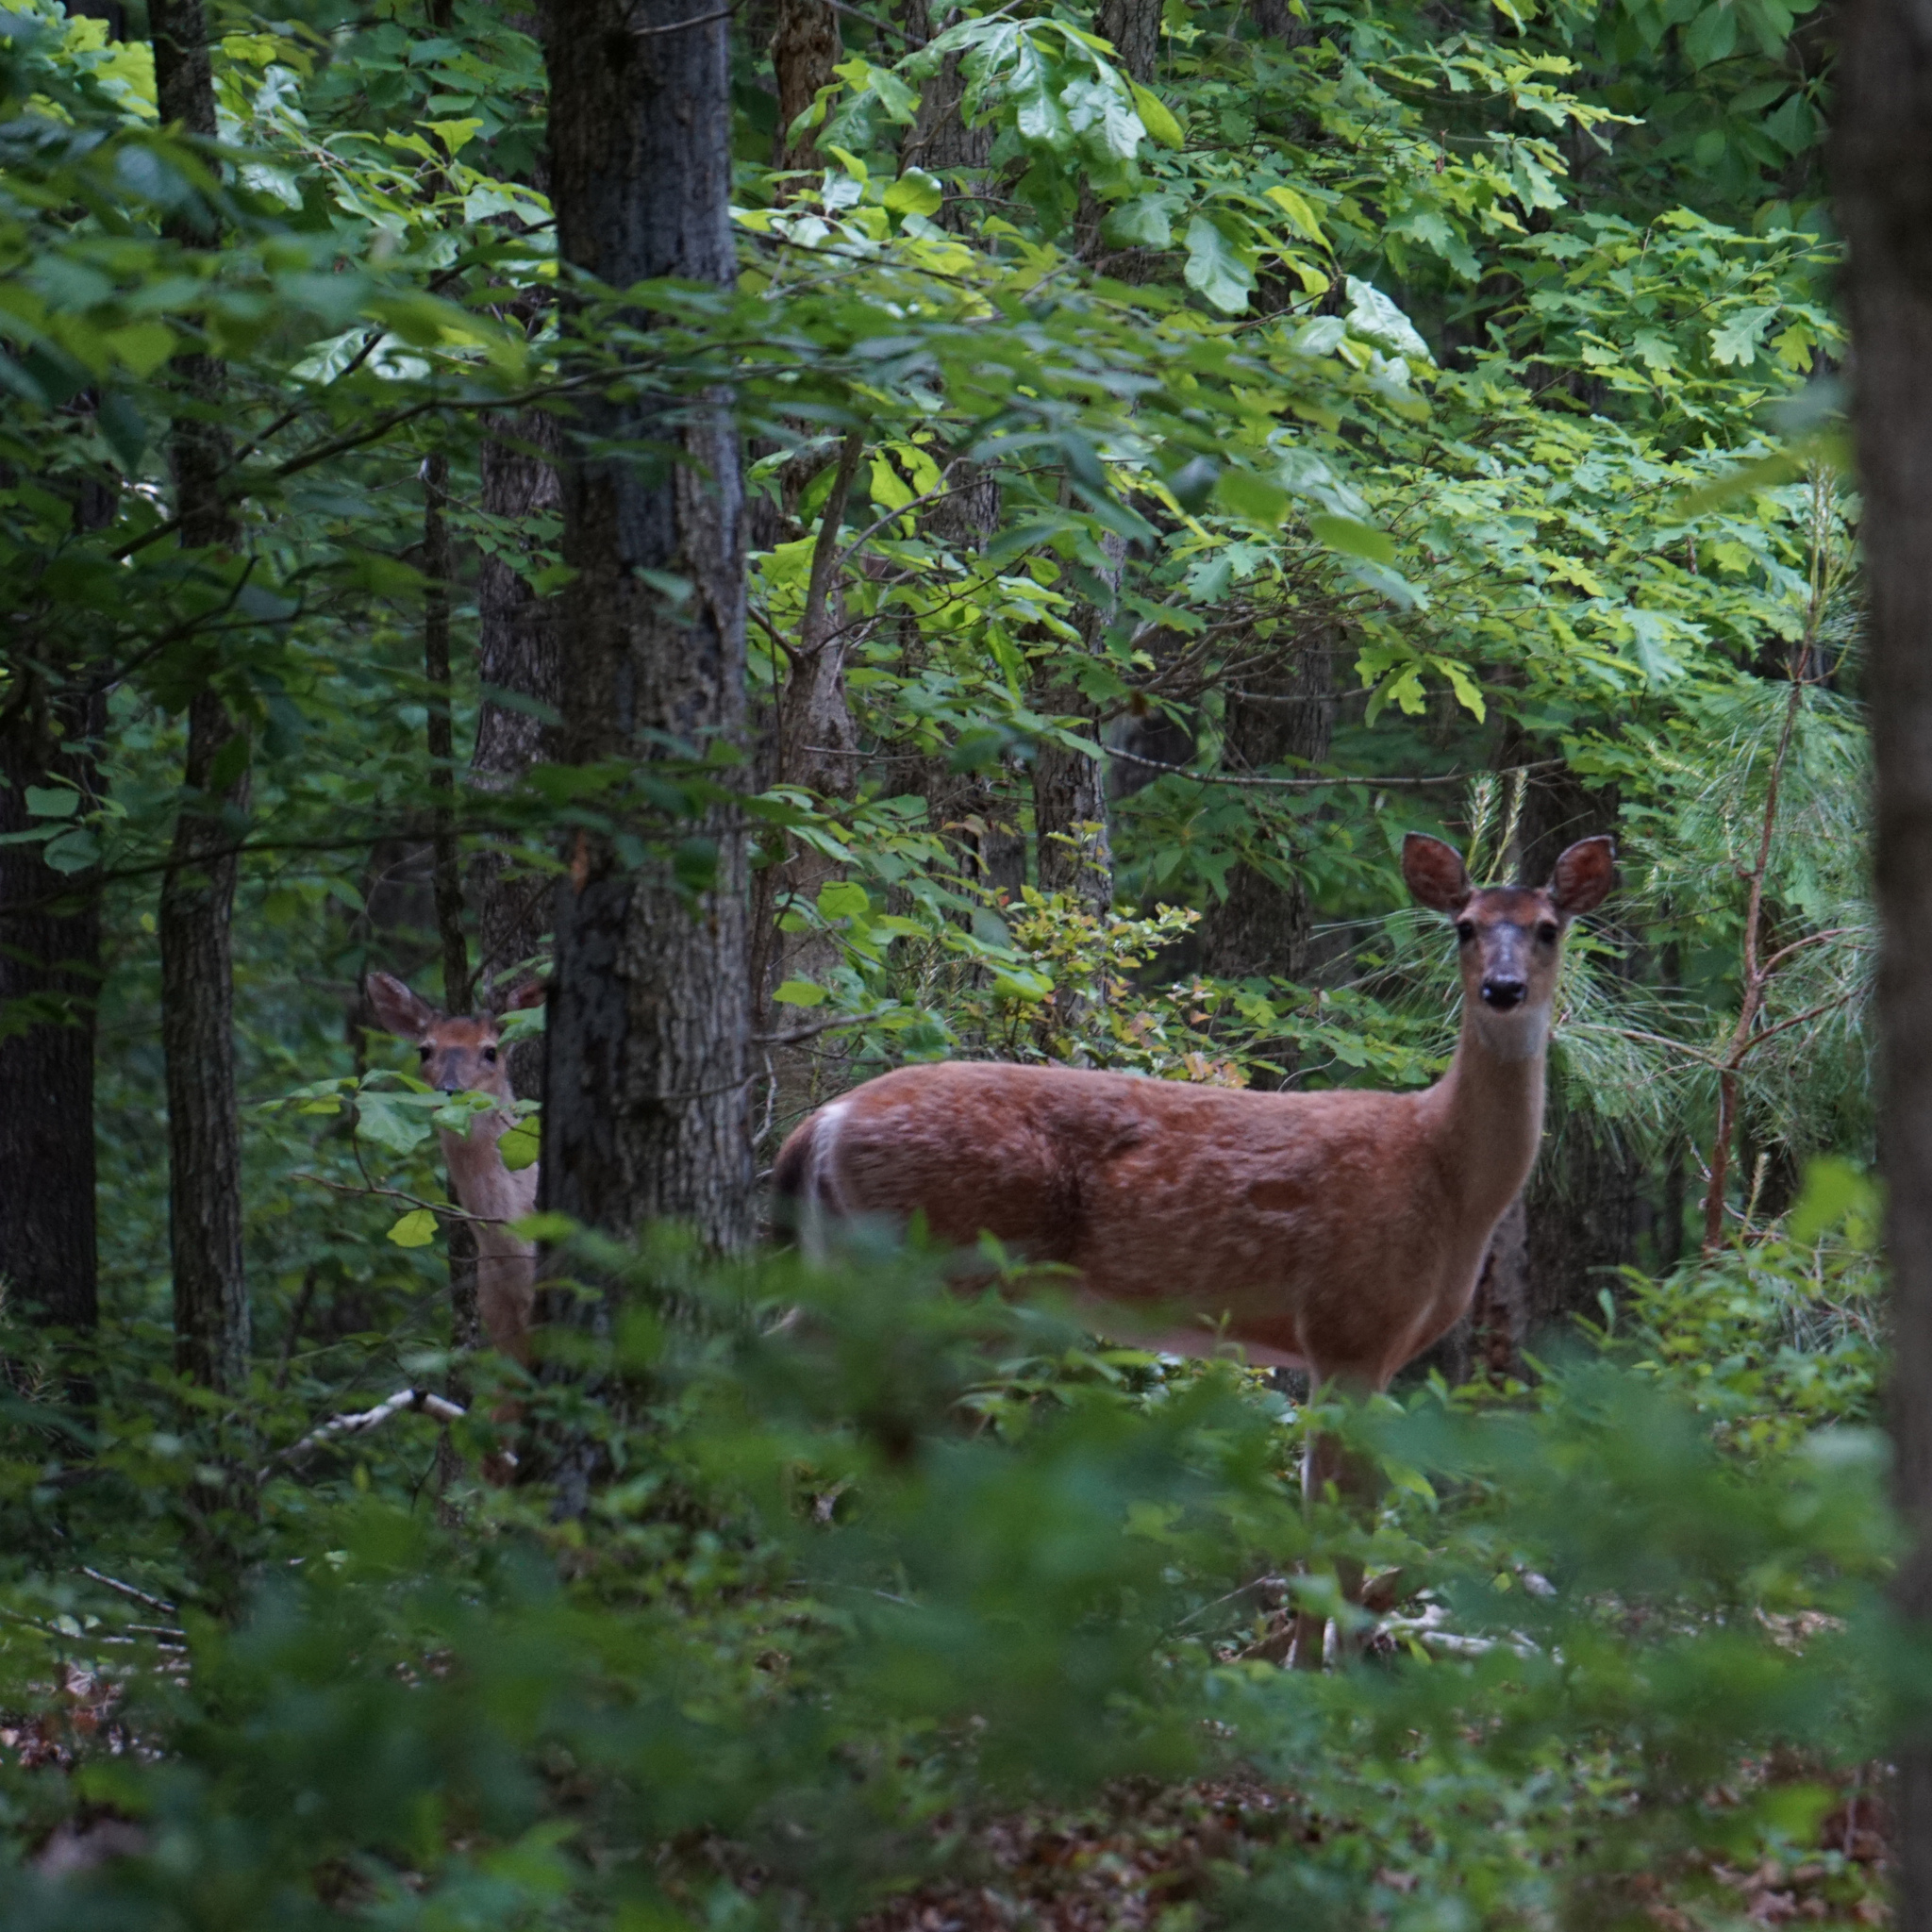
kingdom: Animalia
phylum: Chordata
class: Mammalia
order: Artiodactyla
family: Cervidae
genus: Odocoileus
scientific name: Odocoileus virginianus
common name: White-tailed deer
